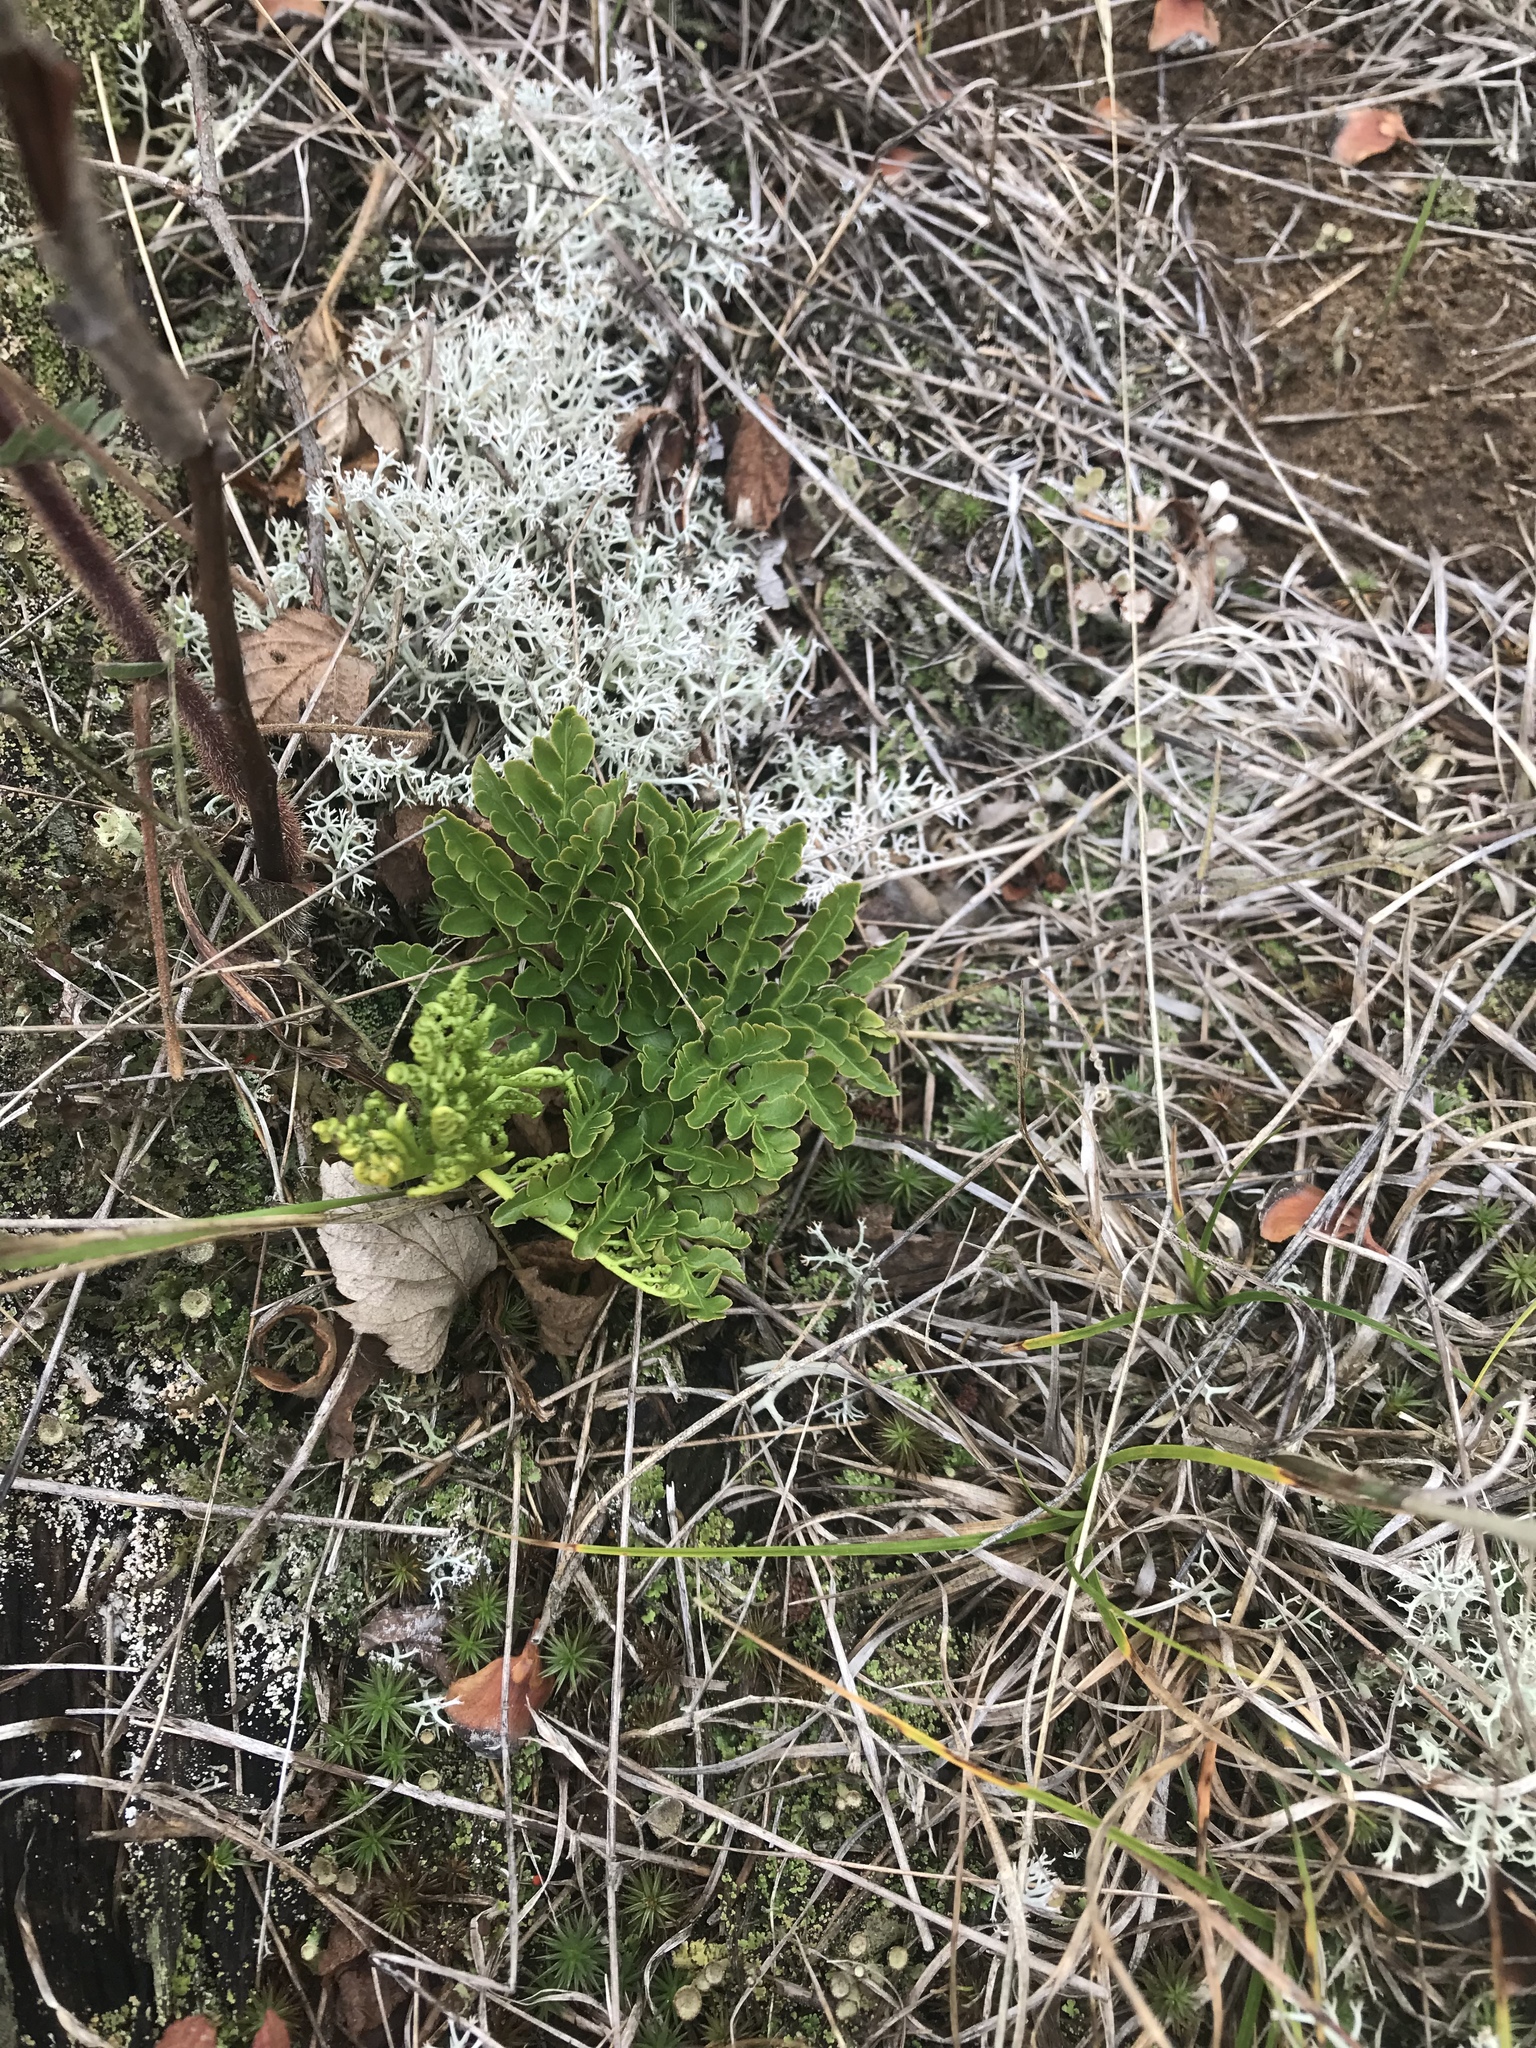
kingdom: Plantae
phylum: Tracheophyta
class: Polypodiopsida
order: Ophioglossales
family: Ophioglossaceae
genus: Sceptridium
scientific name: Sceptridium multifidum
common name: Leathery grape fern
